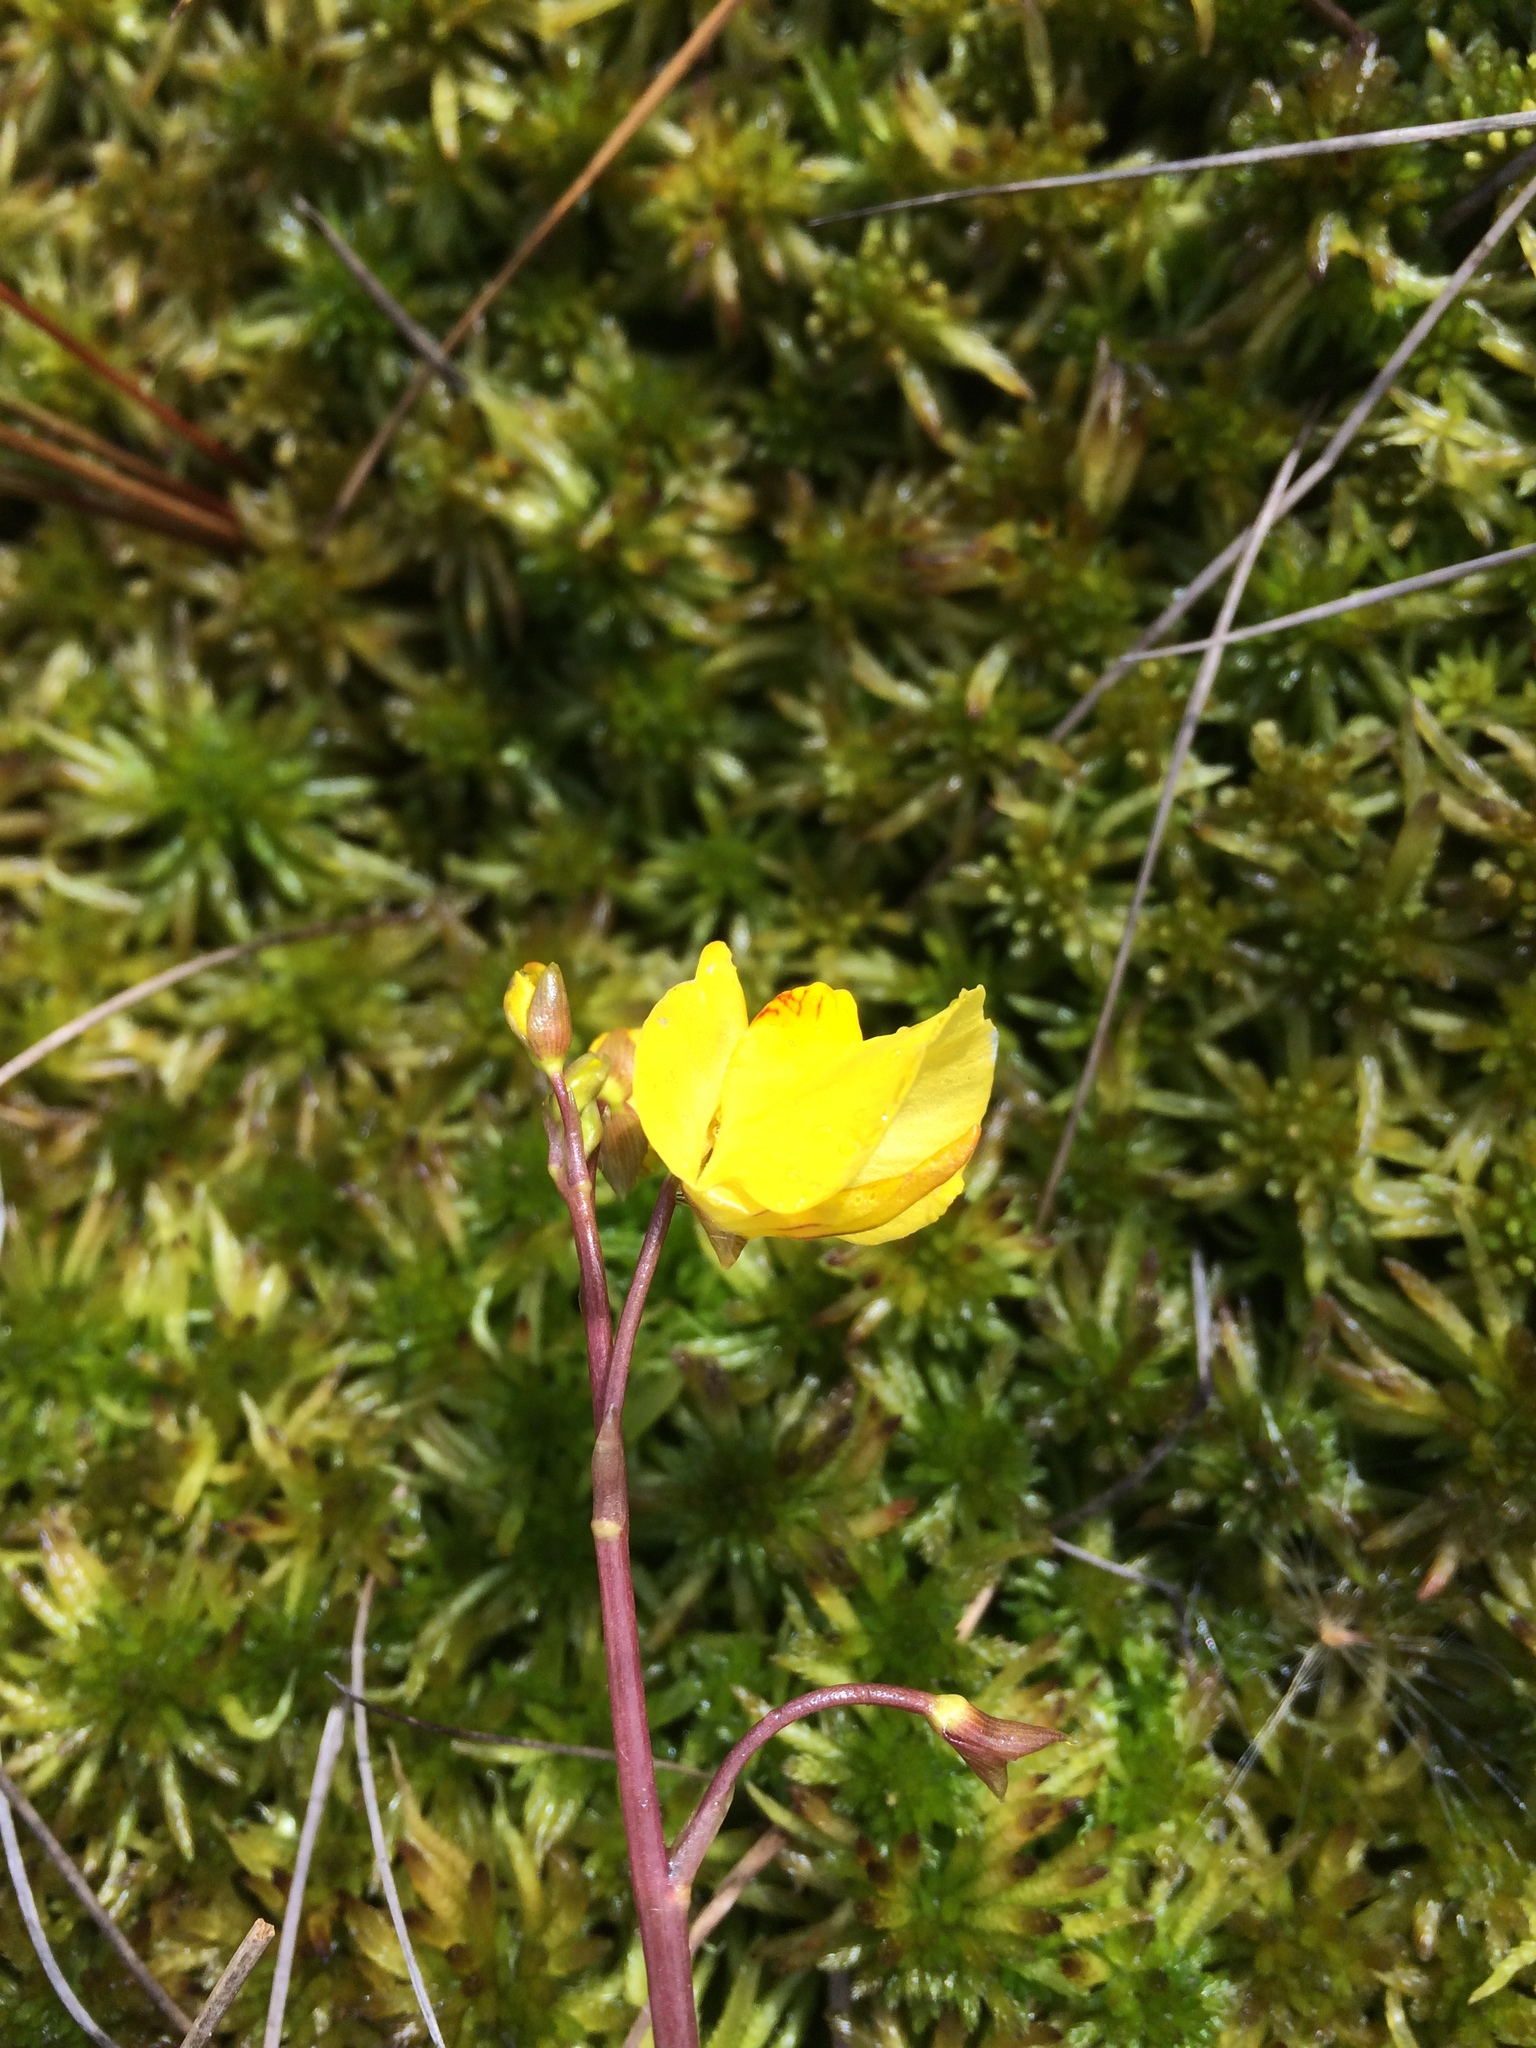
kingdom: Plantae
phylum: Tracheophyta
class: Magnoliopsida
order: Lamiales
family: Lentibulariaceae
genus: Utricularia
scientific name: Utricularia macrorhiza
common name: Common bladderwort
